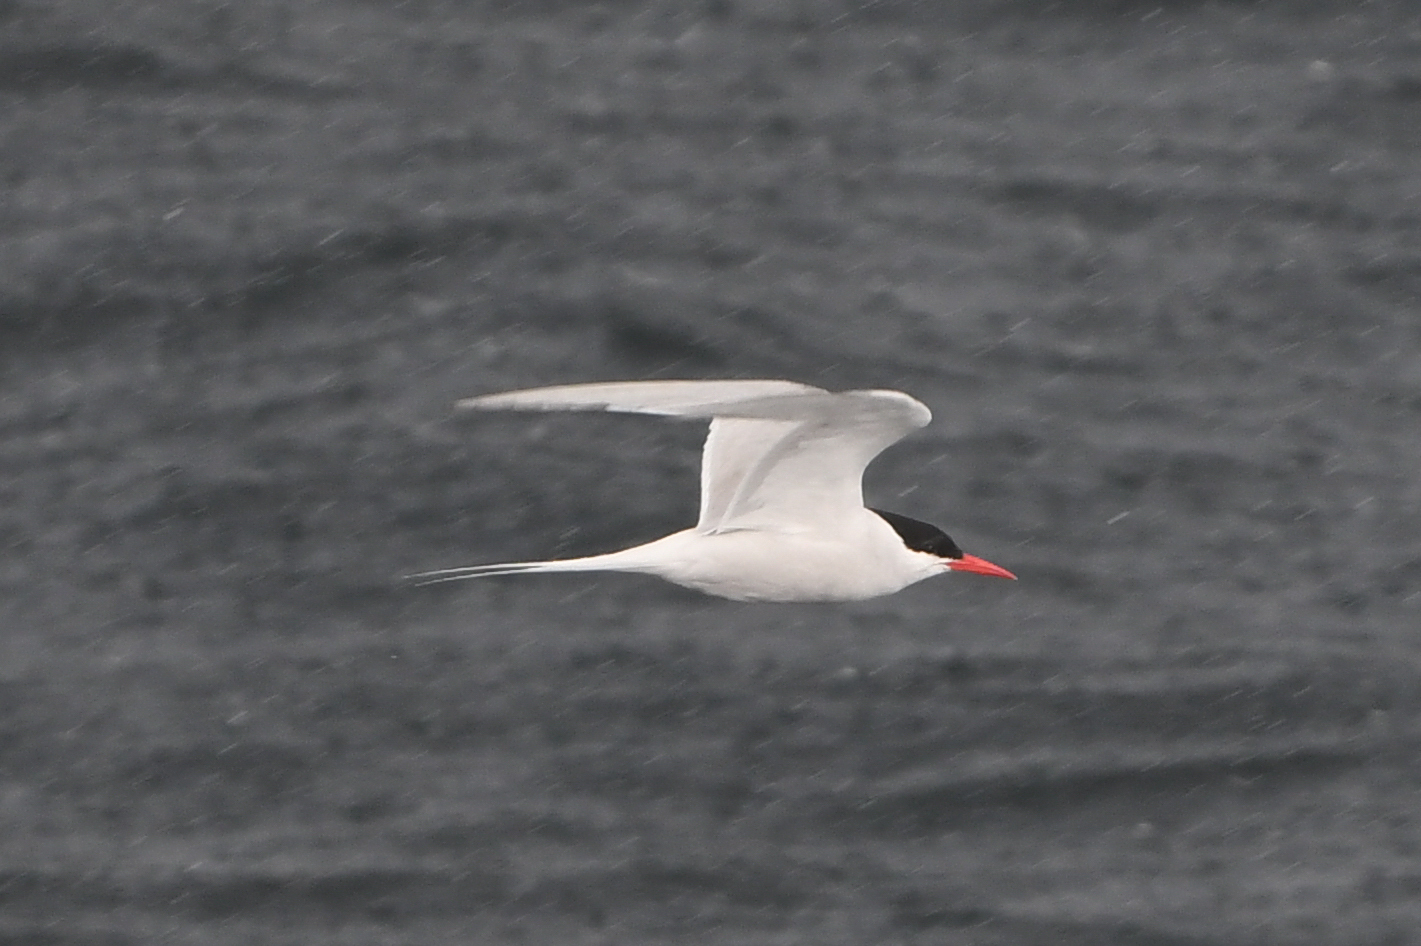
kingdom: Animalia
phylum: Chordata
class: Aves
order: Charadriiformes
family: Laridae
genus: Sterna
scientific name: Sterna hirundinacea
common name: South american tern
